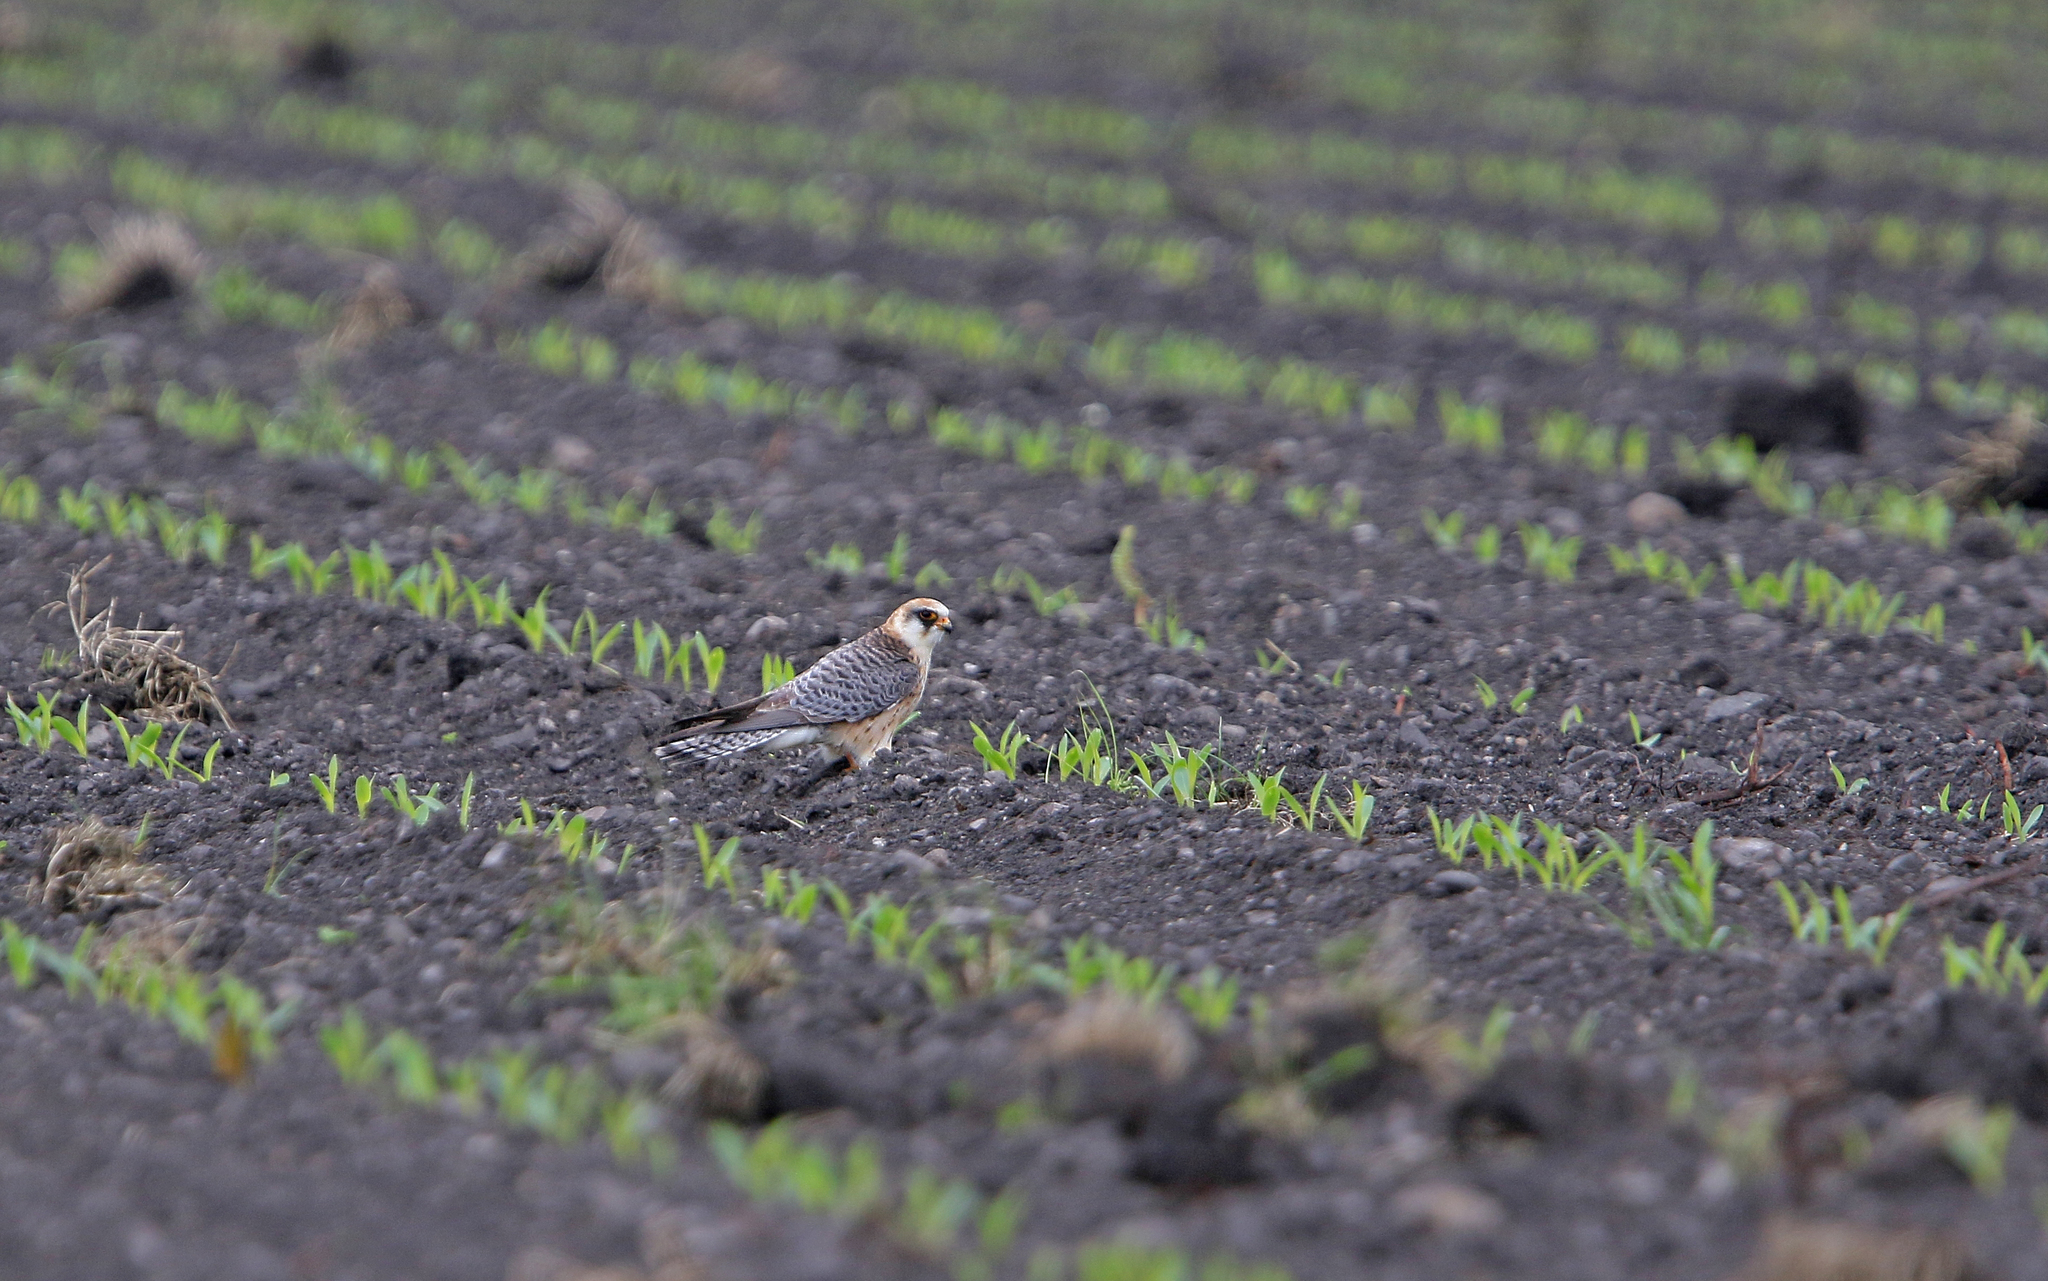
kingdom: Animalia
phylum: Chordata
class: Aves
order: Falconiformes
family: Falconidae
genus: Falco
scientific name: Falco vespertinus
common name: Red-footed falcon
